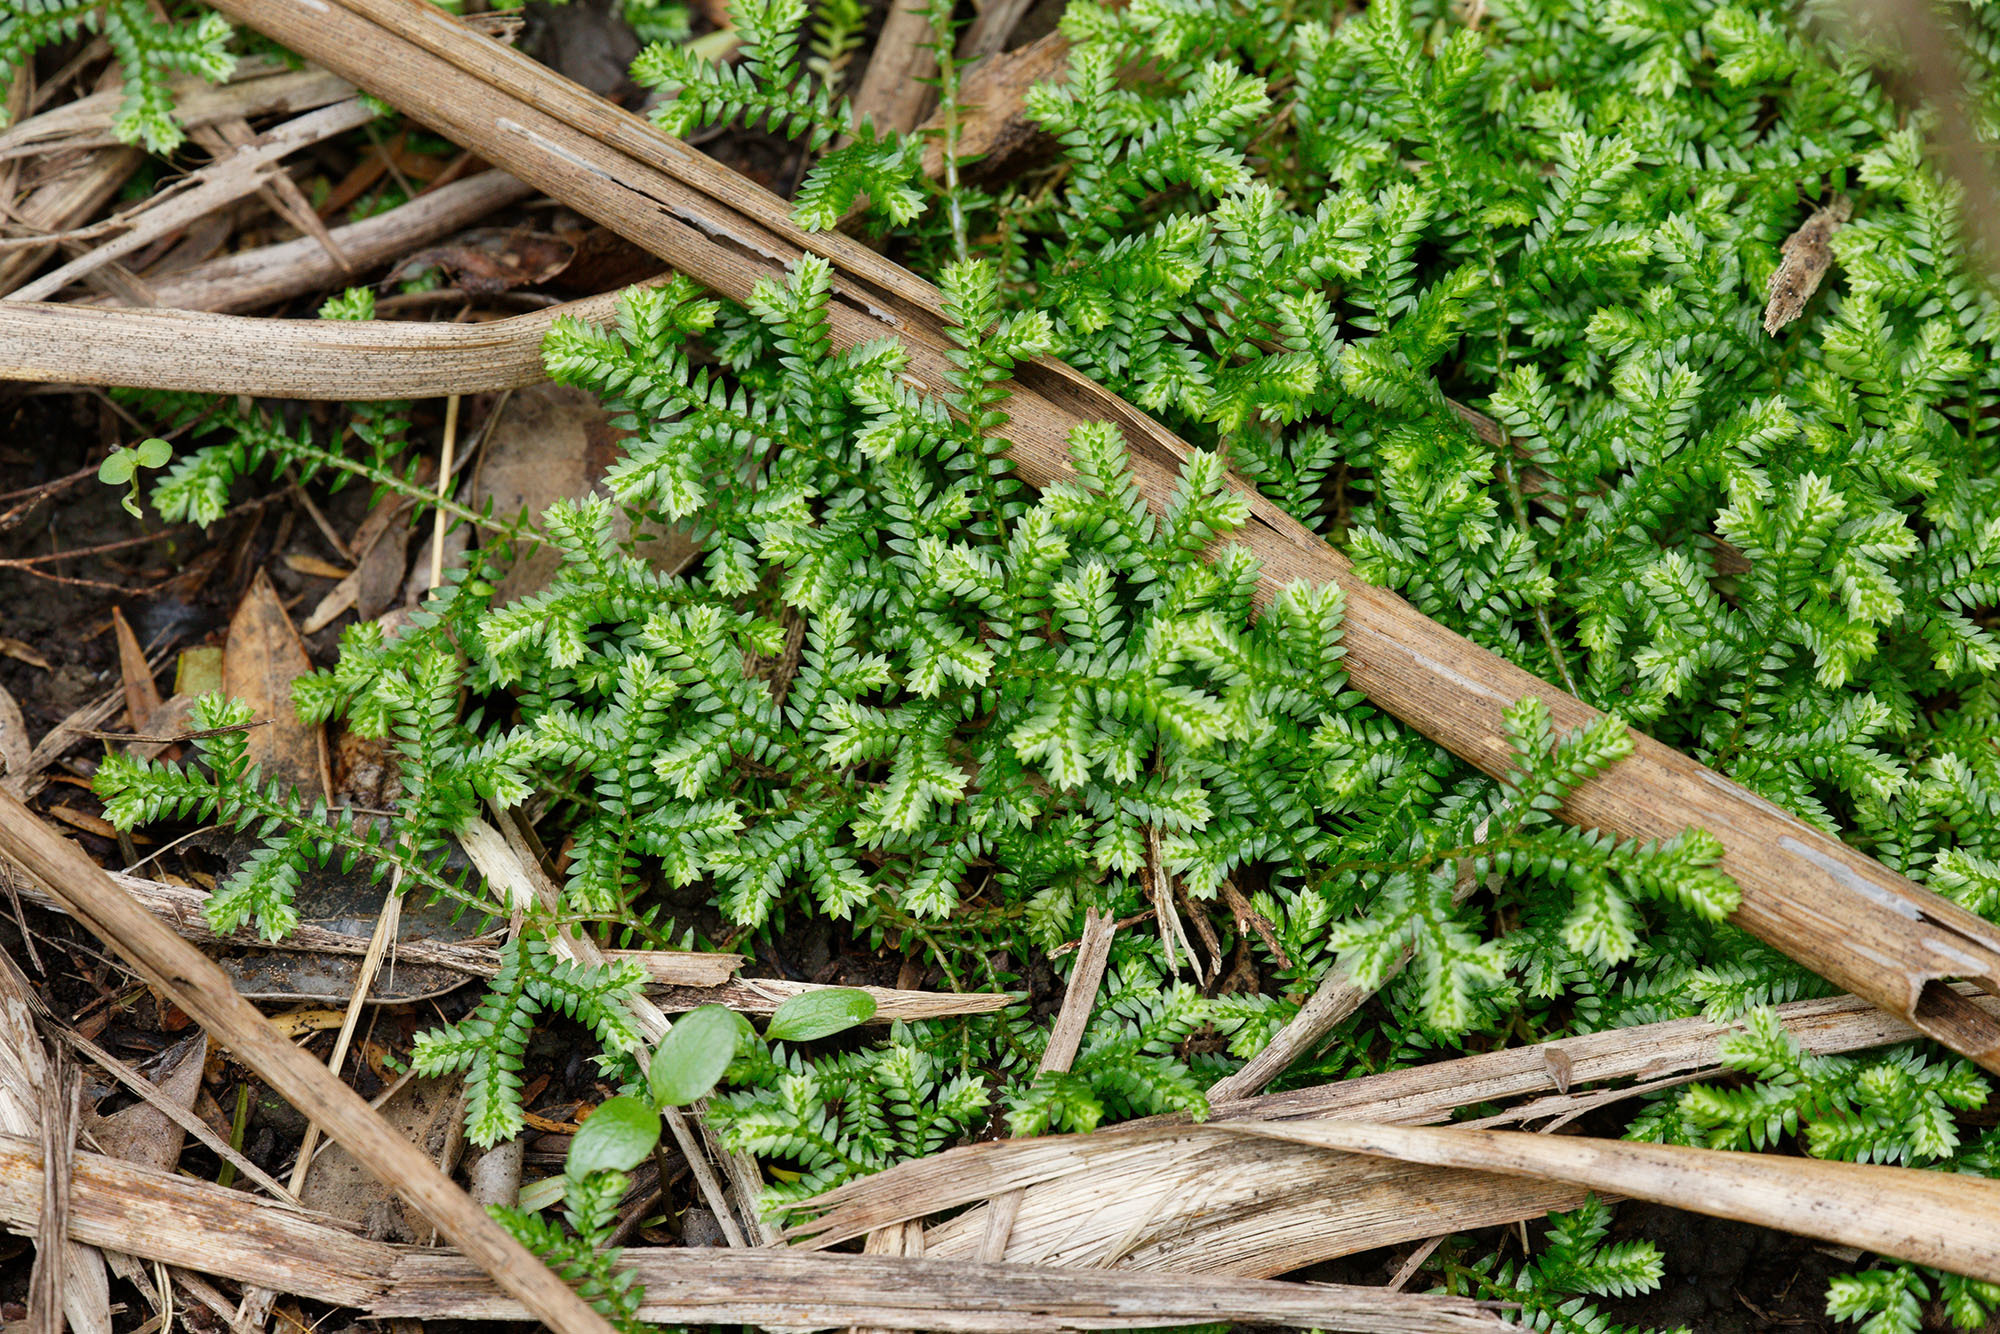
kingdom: Plantae
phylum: Tracheophyta
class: Lycopodiopsida
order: Selaginellales
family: Selaginellaceae
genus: Selaginella
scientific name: Selaginella kraussiana
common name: Krauss' spikemoss
